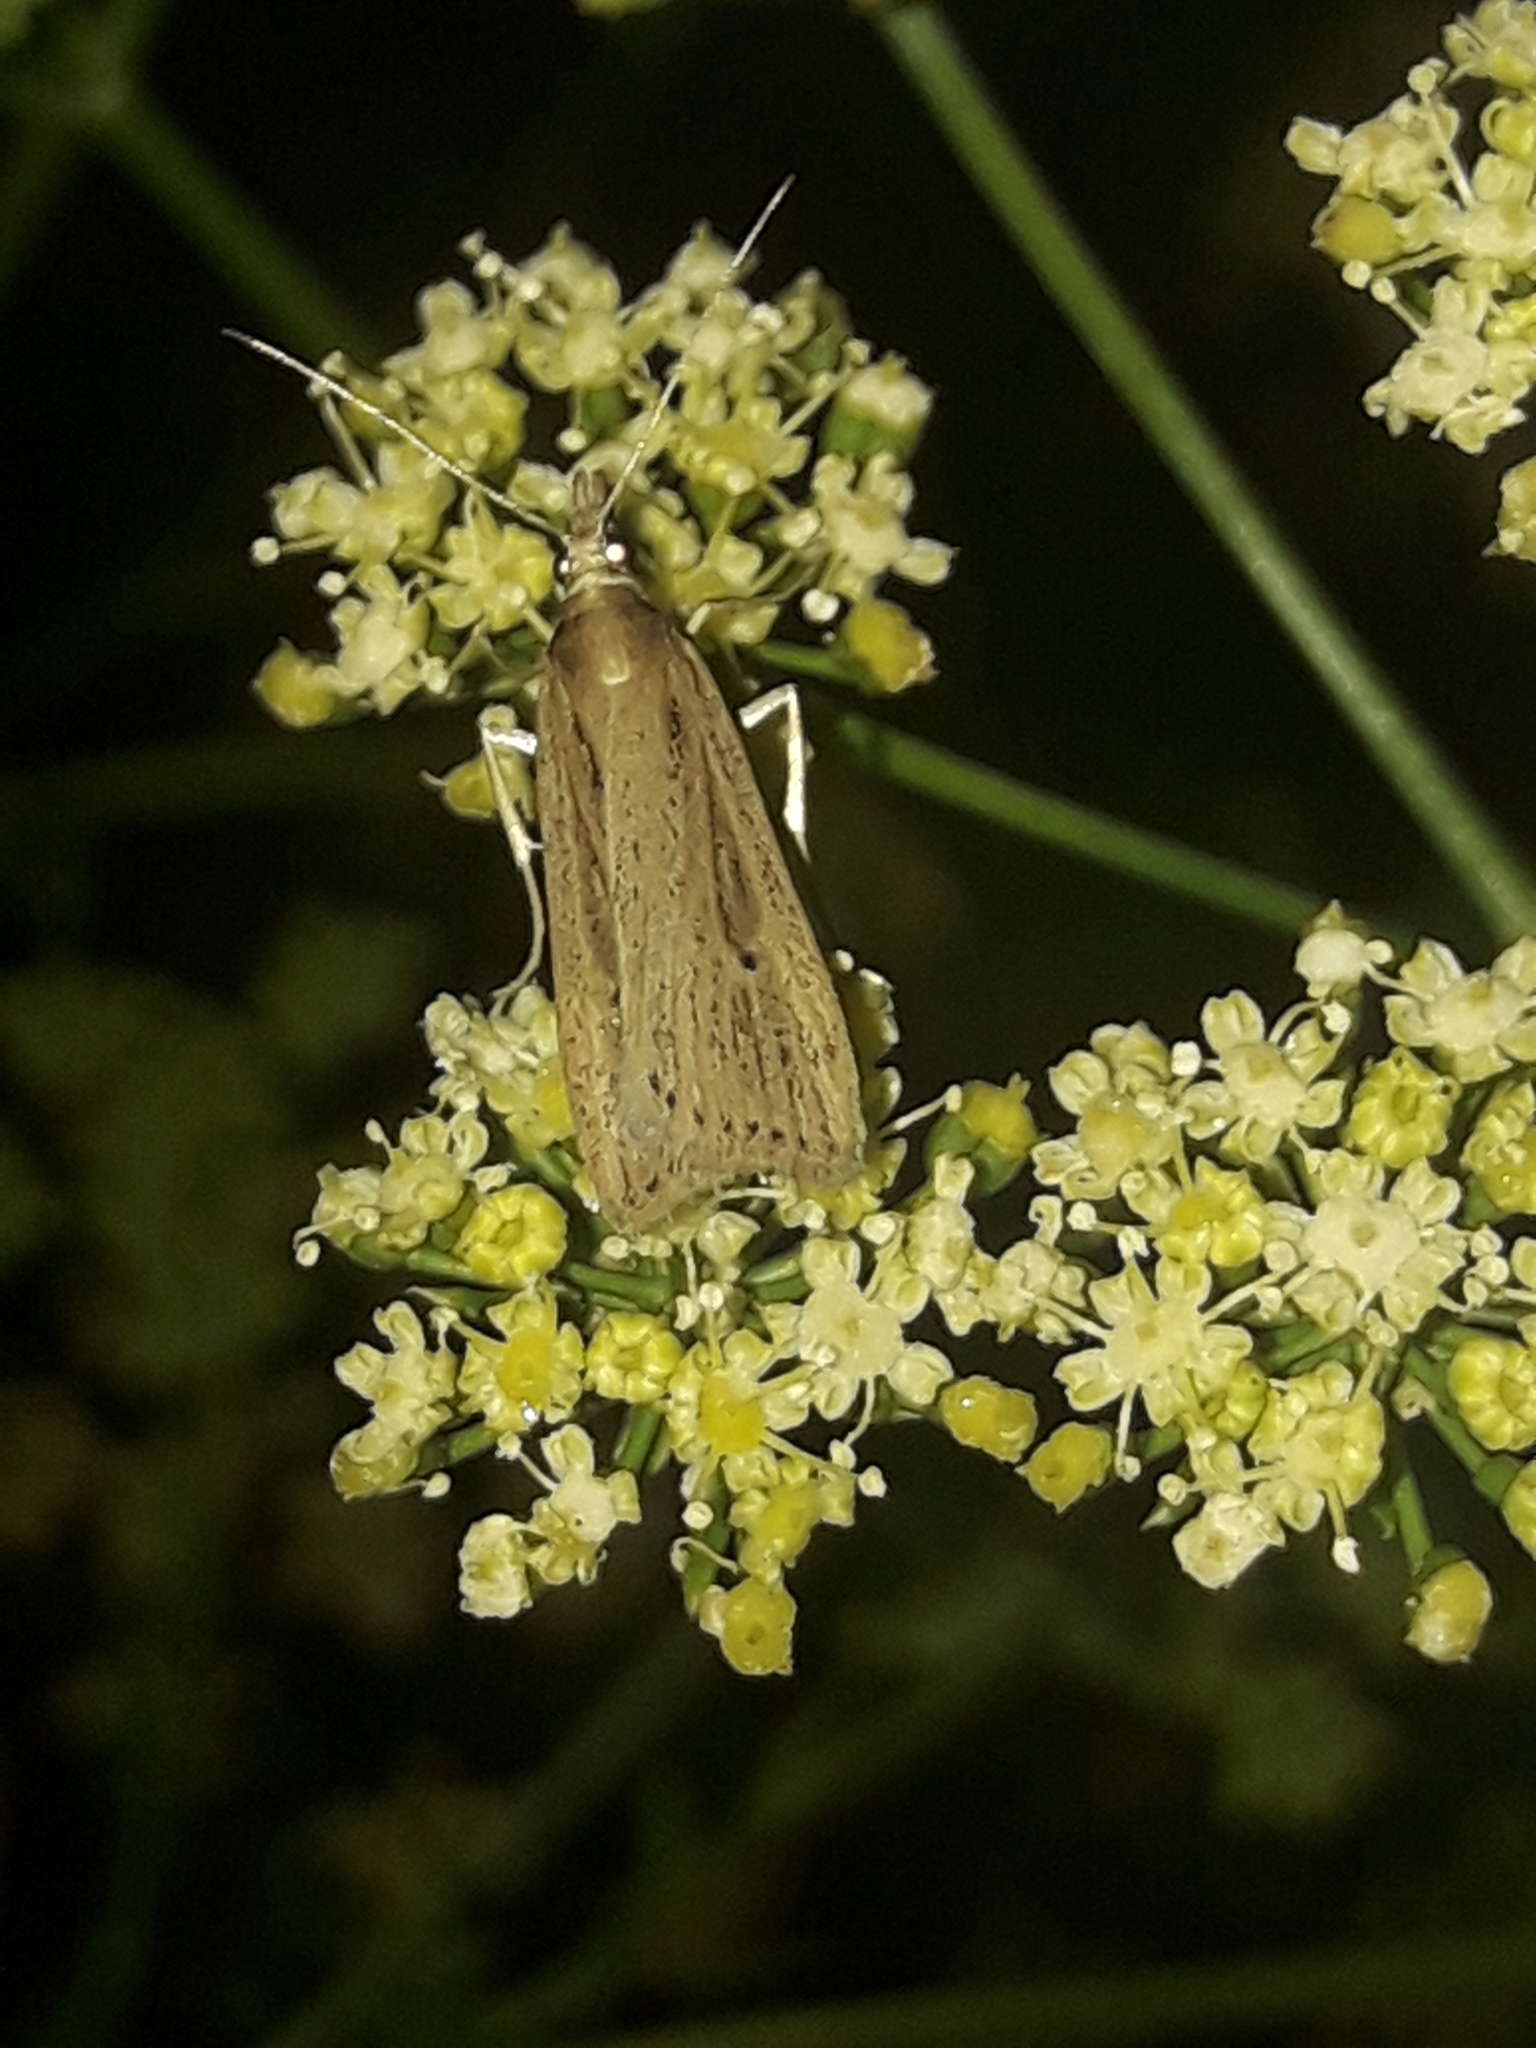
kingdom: Animalia
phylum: Arthropoda
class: Insecta
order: Lepidoptera
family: Crambidae
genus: Eudonia
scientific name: Eudonia sabulosella
